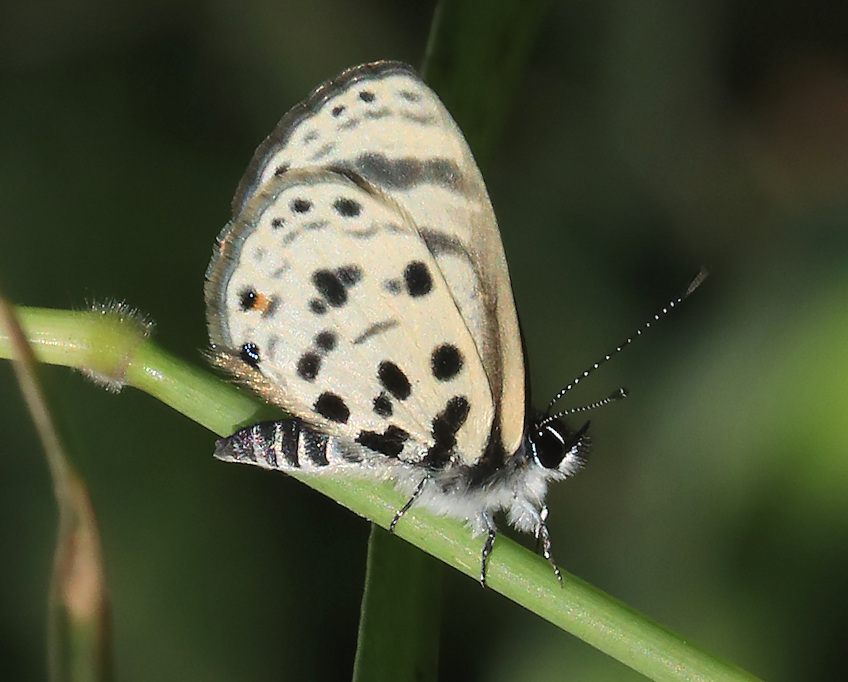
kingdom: Animalia
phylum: Arthropoda
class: Insecta
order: Lepidoptera
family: Lycaenidae
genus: Azanus
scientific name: Azanus mirza
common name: Mirza babul blue
